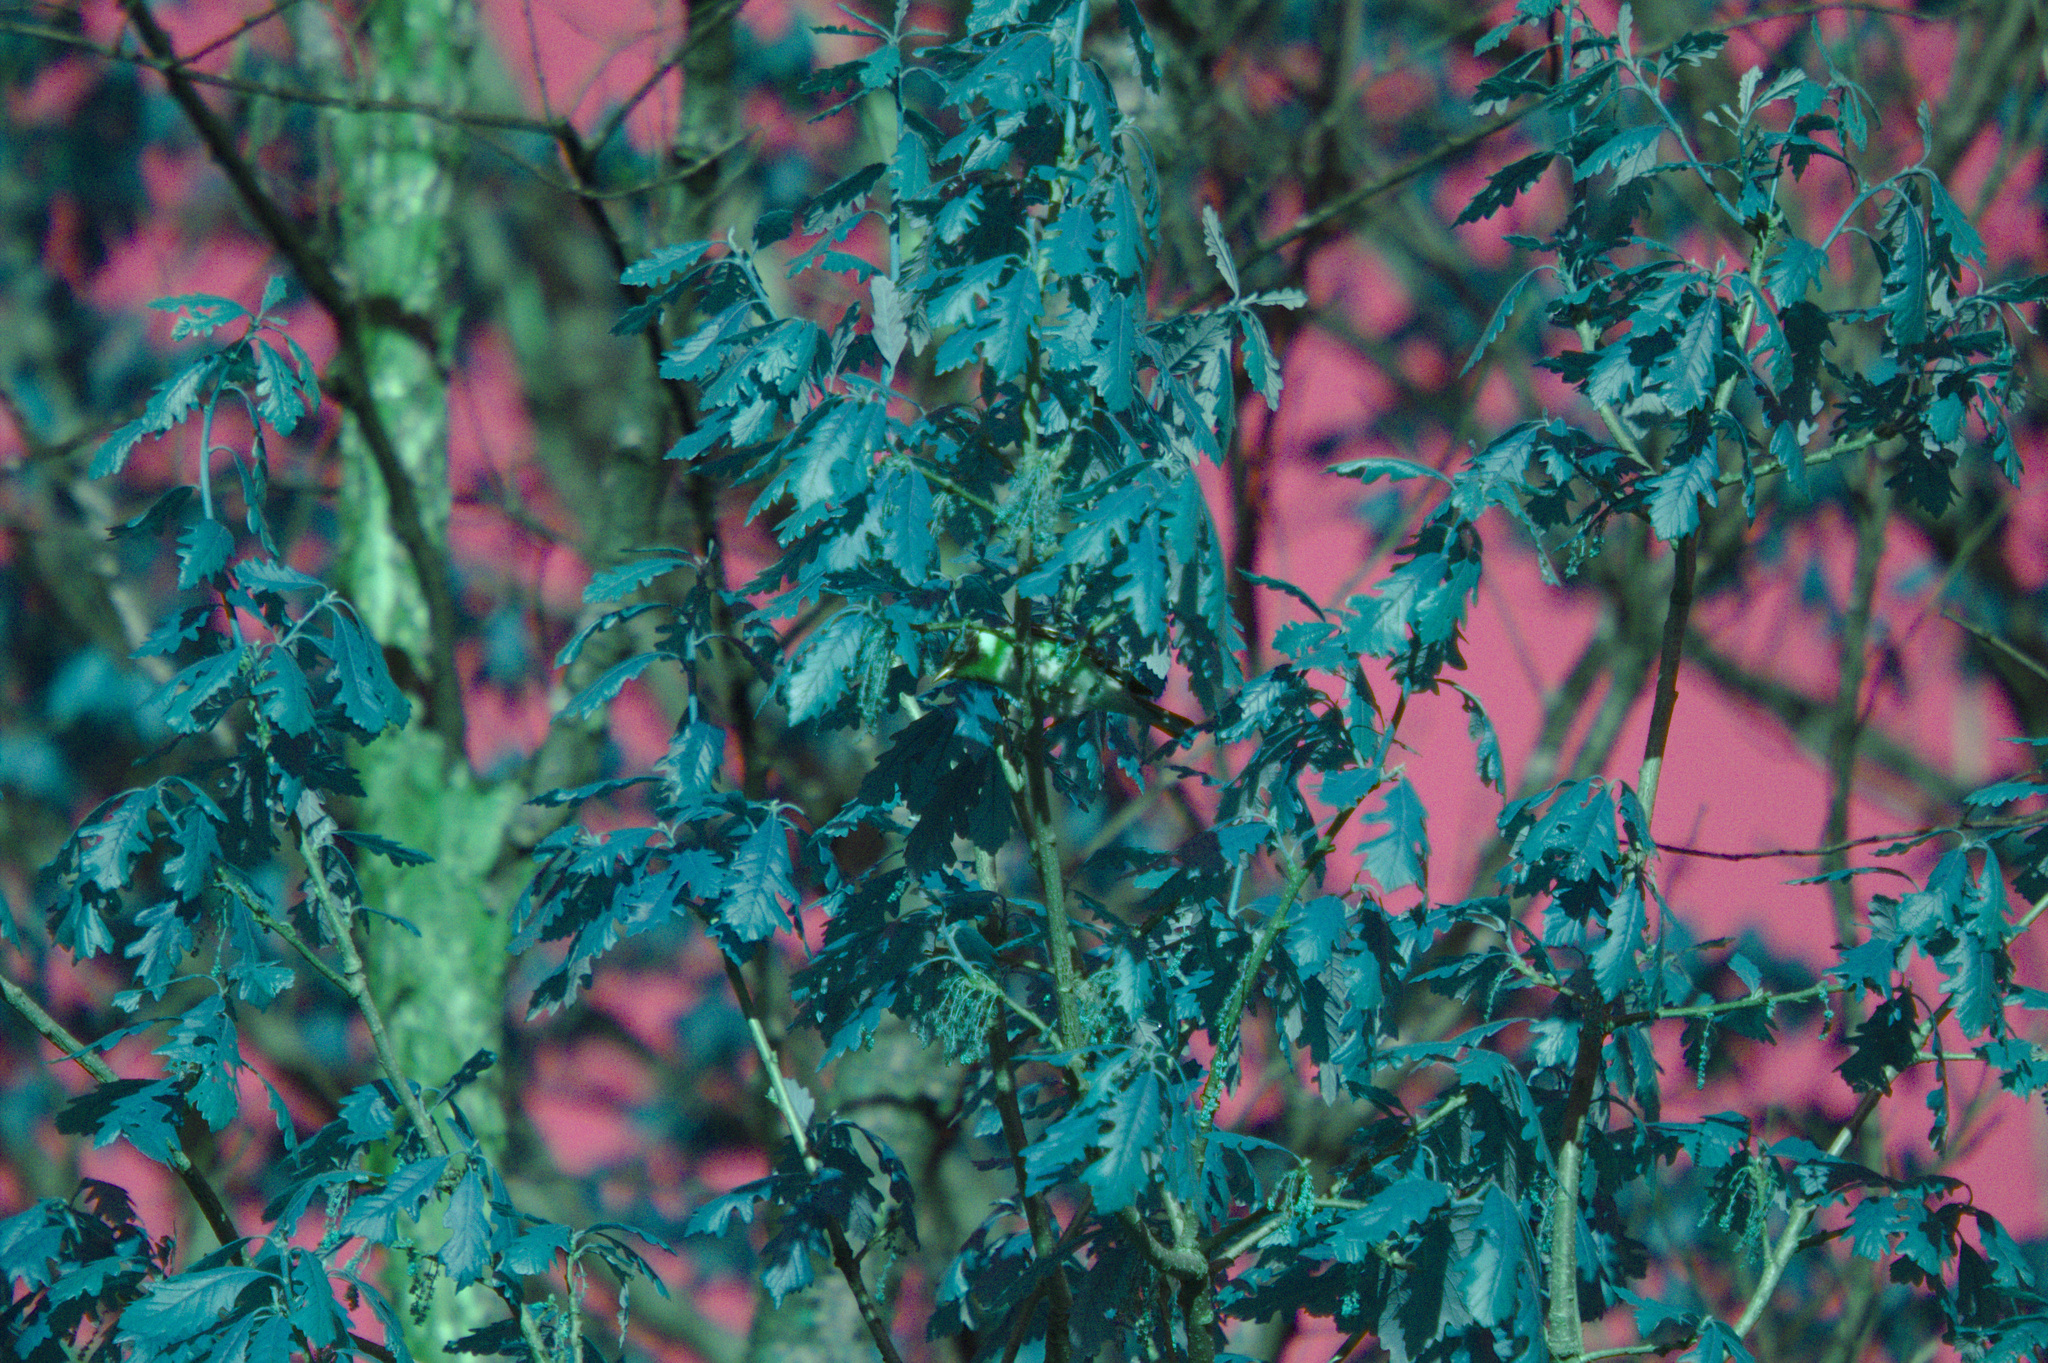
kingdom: Plantae
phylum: Tracheophyta
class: Magnoliopsida
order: Fagales
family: Fagaceae
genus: Quercus
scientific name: Quercus macrocarpa
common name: Bur oak
